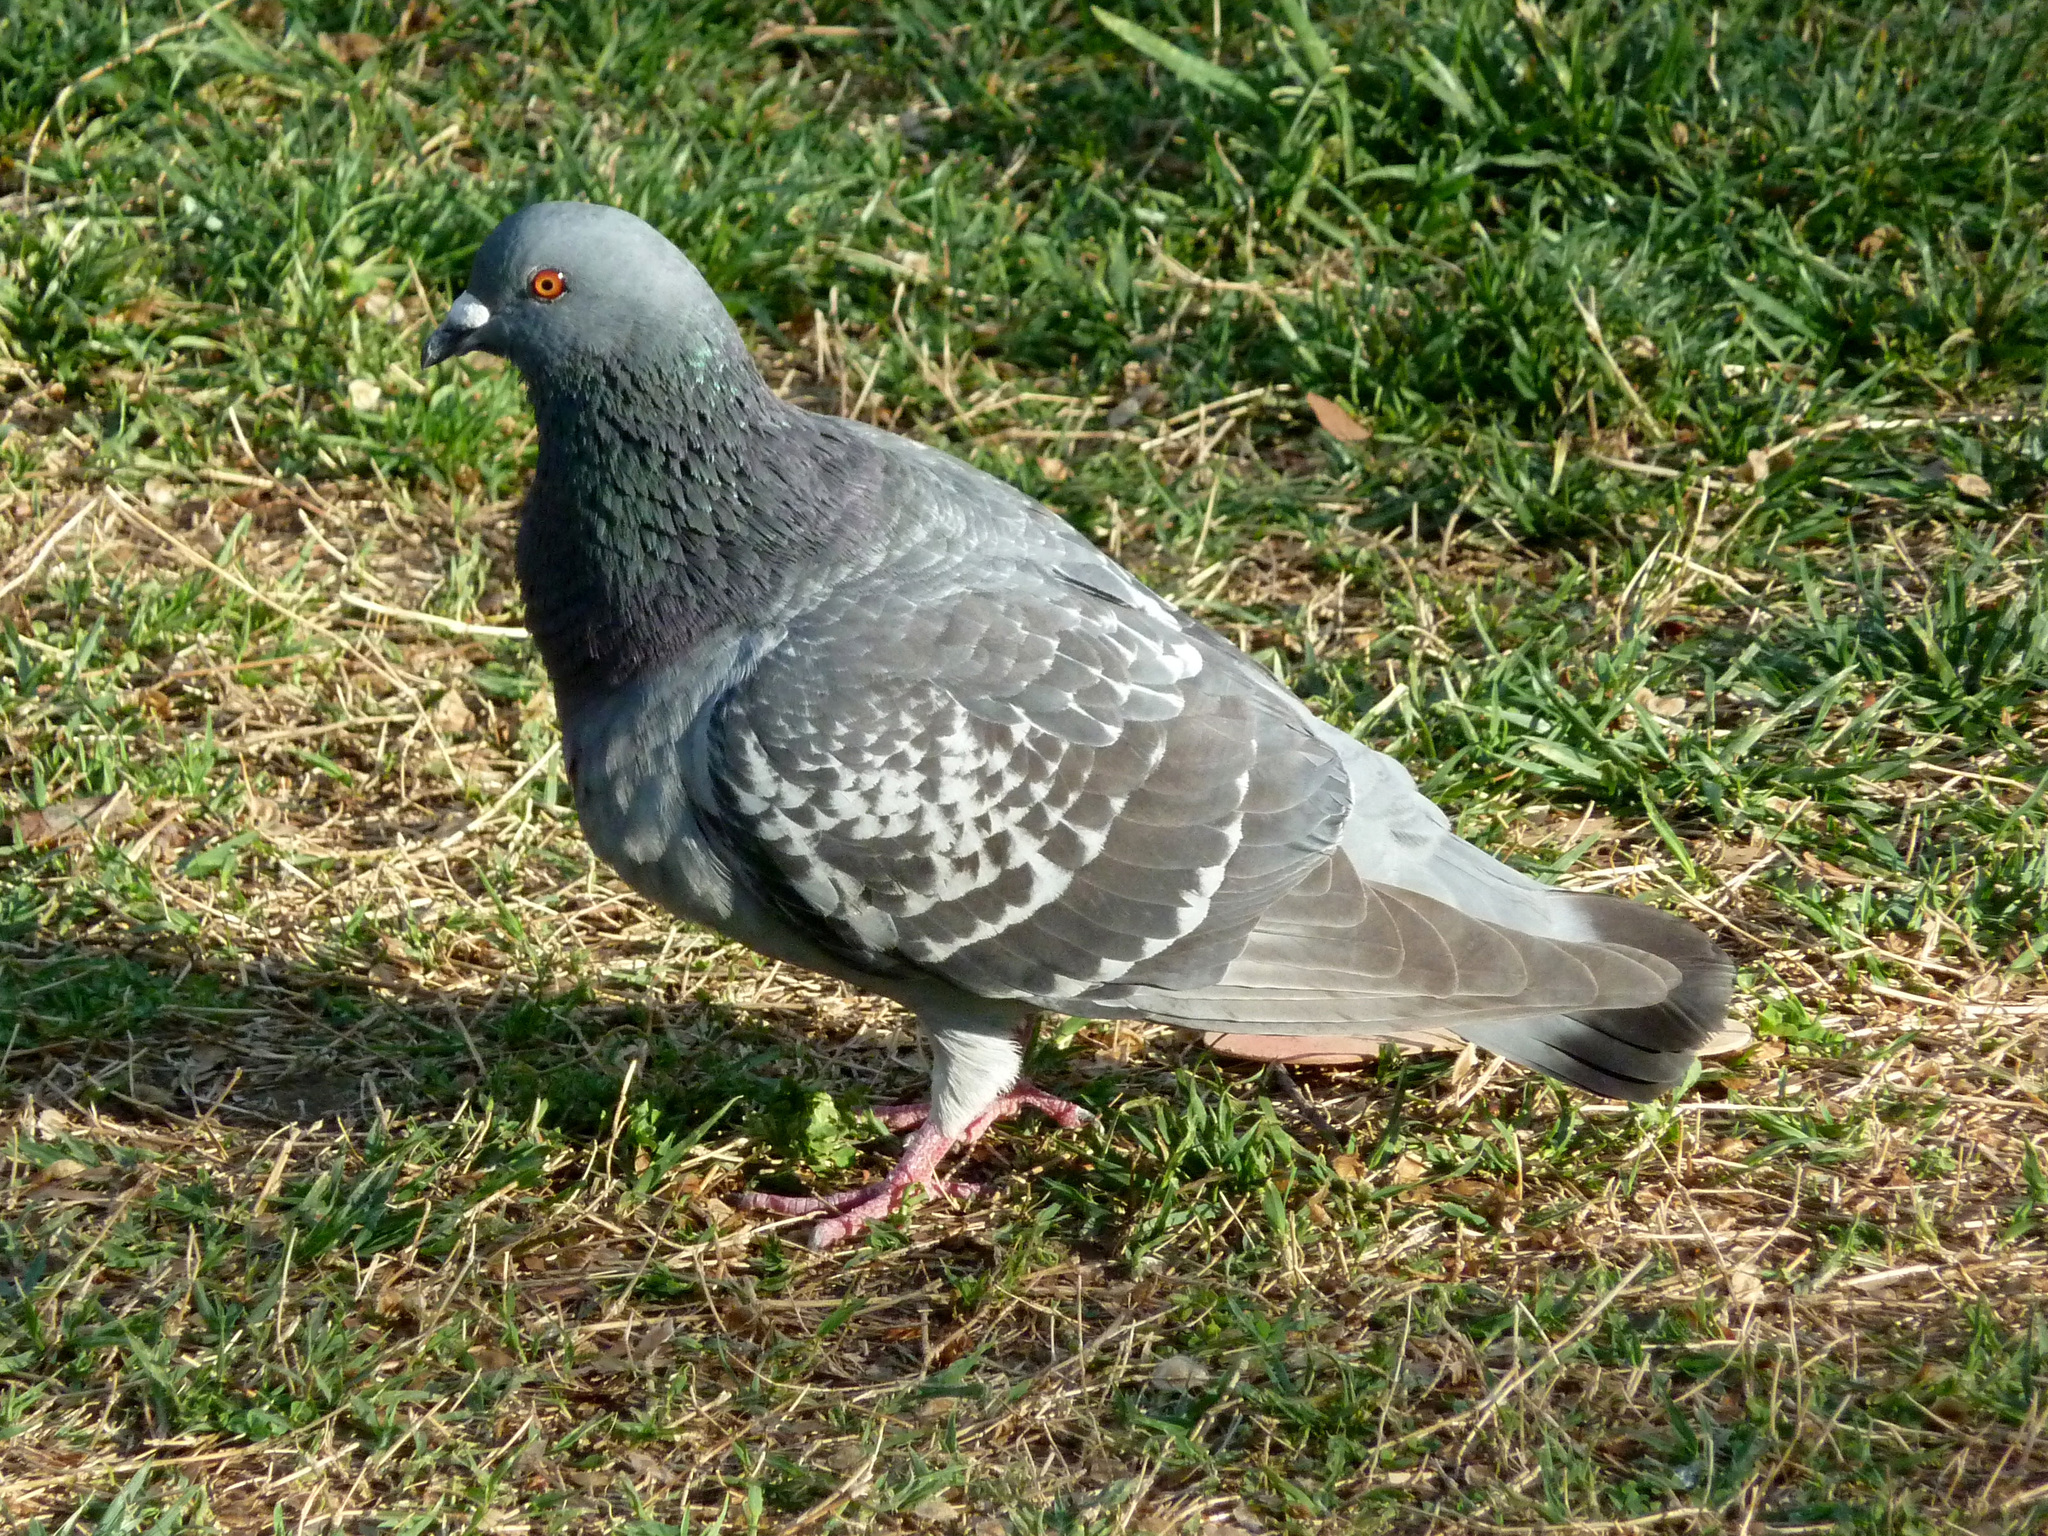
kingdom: Animalia
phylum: Chordata
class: Aves
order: Columbiformes
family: Columbidae
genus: Columba
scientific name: Columba livia
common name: Rock pigeon
